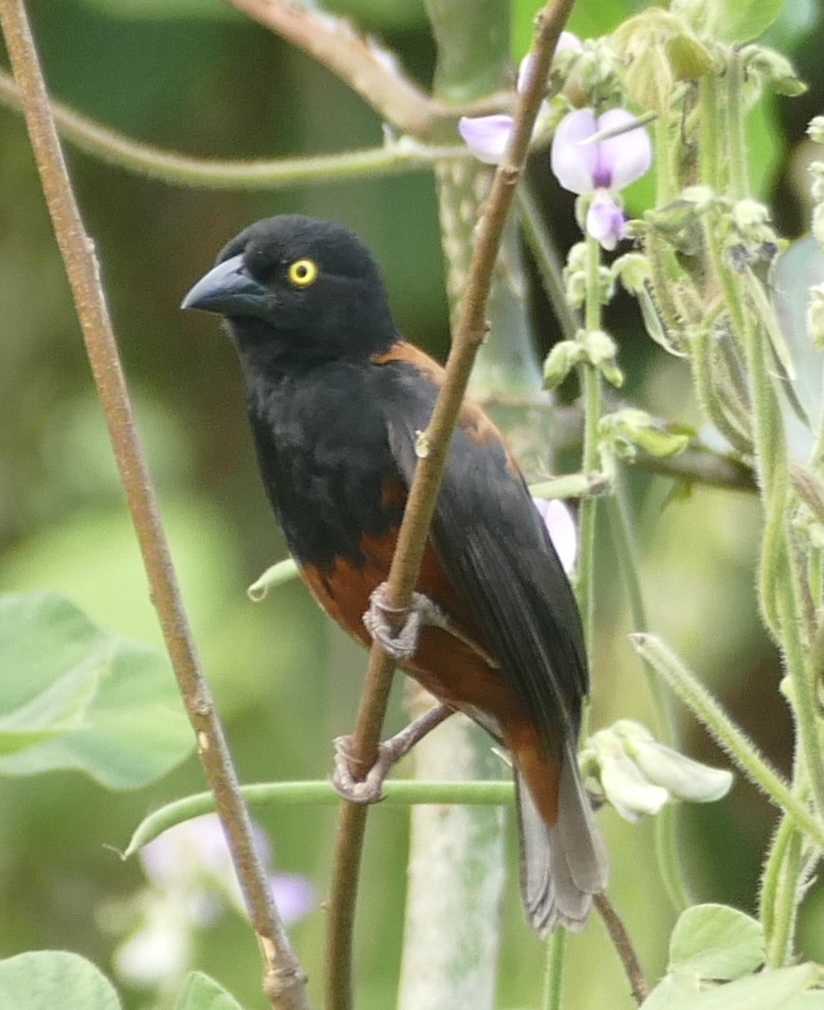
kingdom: Animalia
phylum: Chordata
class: Aves
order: Passeriformes
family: Ploceidae
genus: Ploceus
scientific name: Ploceus castaneofuscus
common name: Chestnut-and-black weaver
